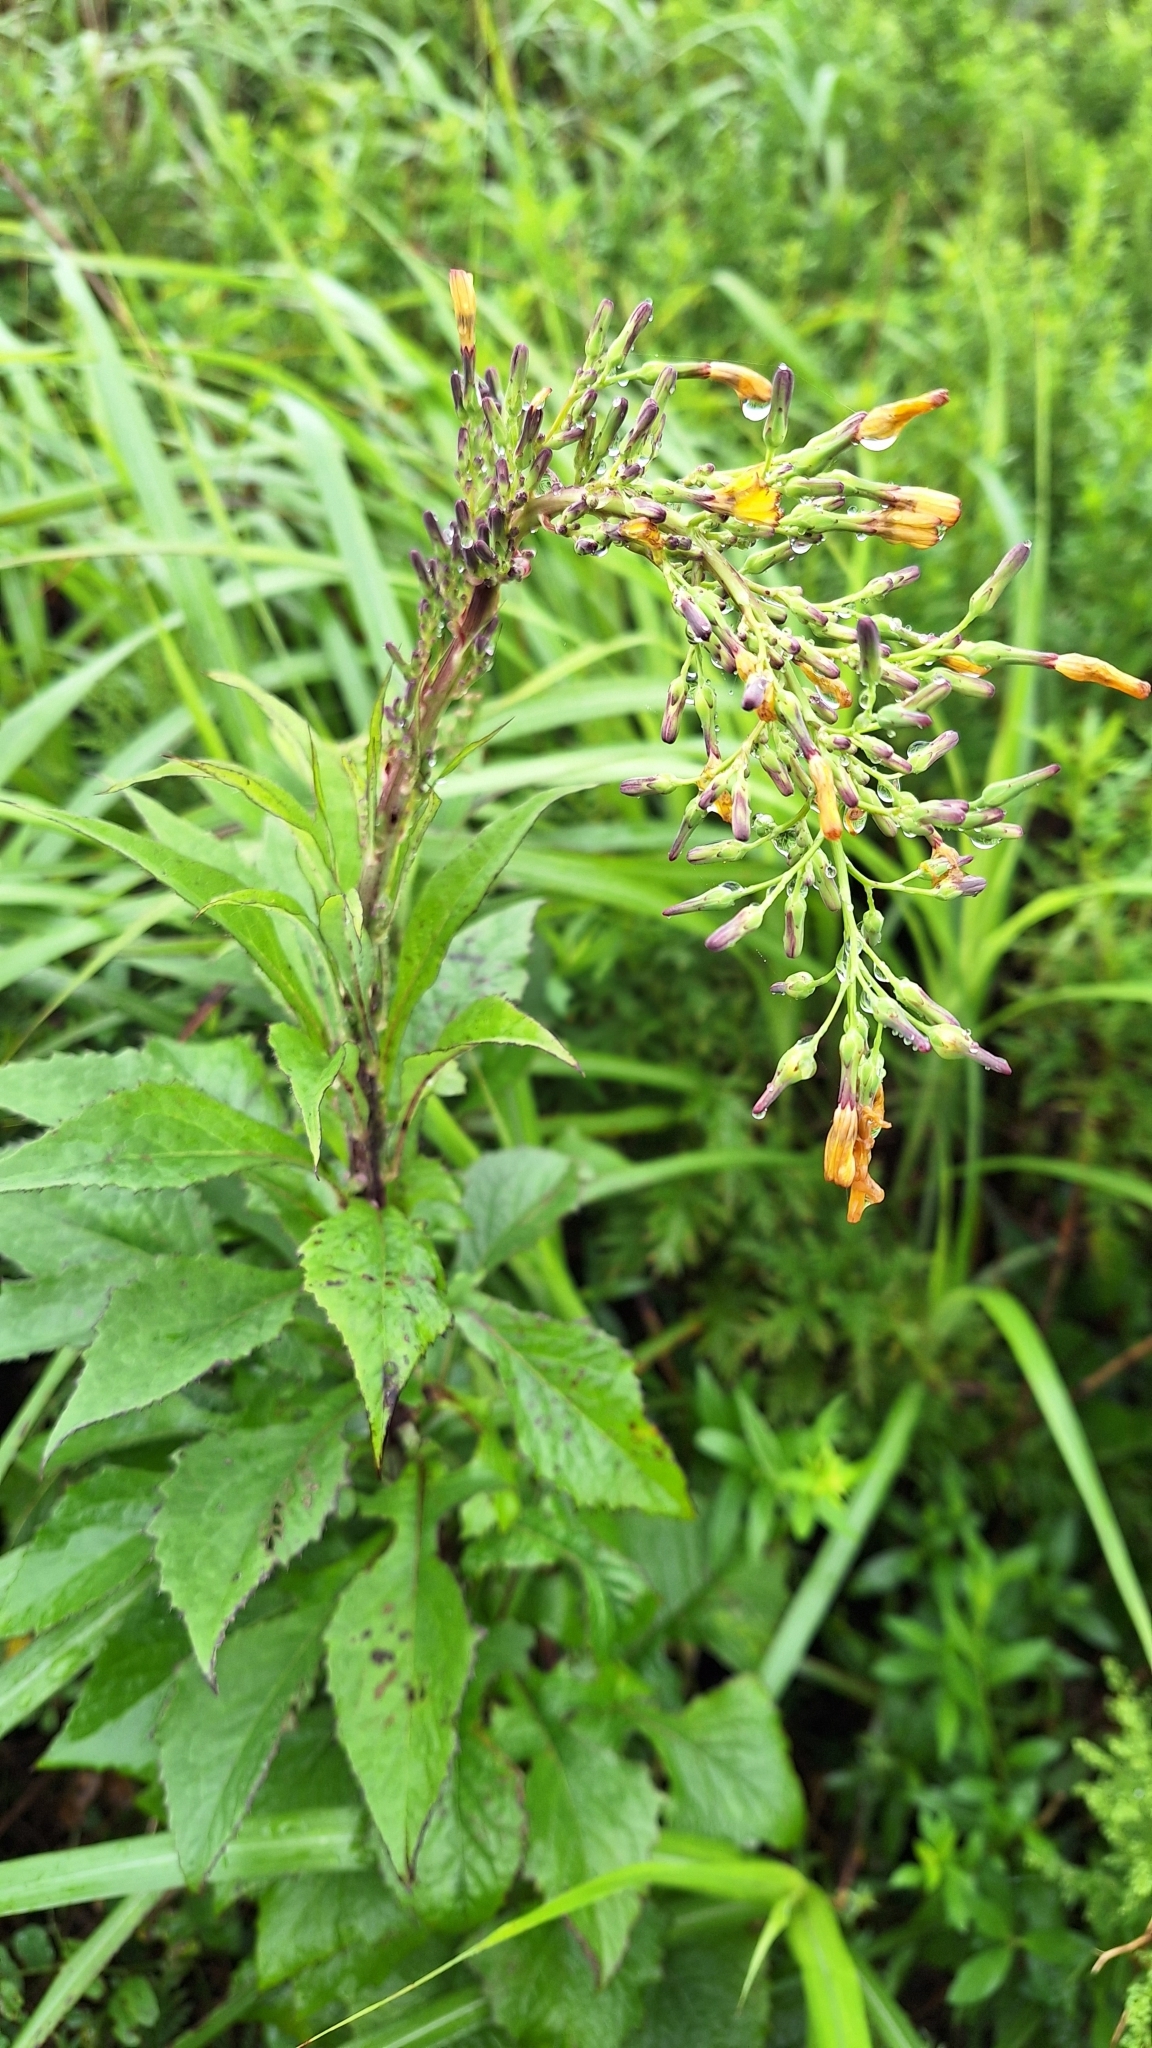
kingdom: Plantae
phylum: Tracheophyta
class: Magnoliopsida
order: Asterales
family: Asteraceae
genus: Lactuca
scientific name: Lactuca raddeana
